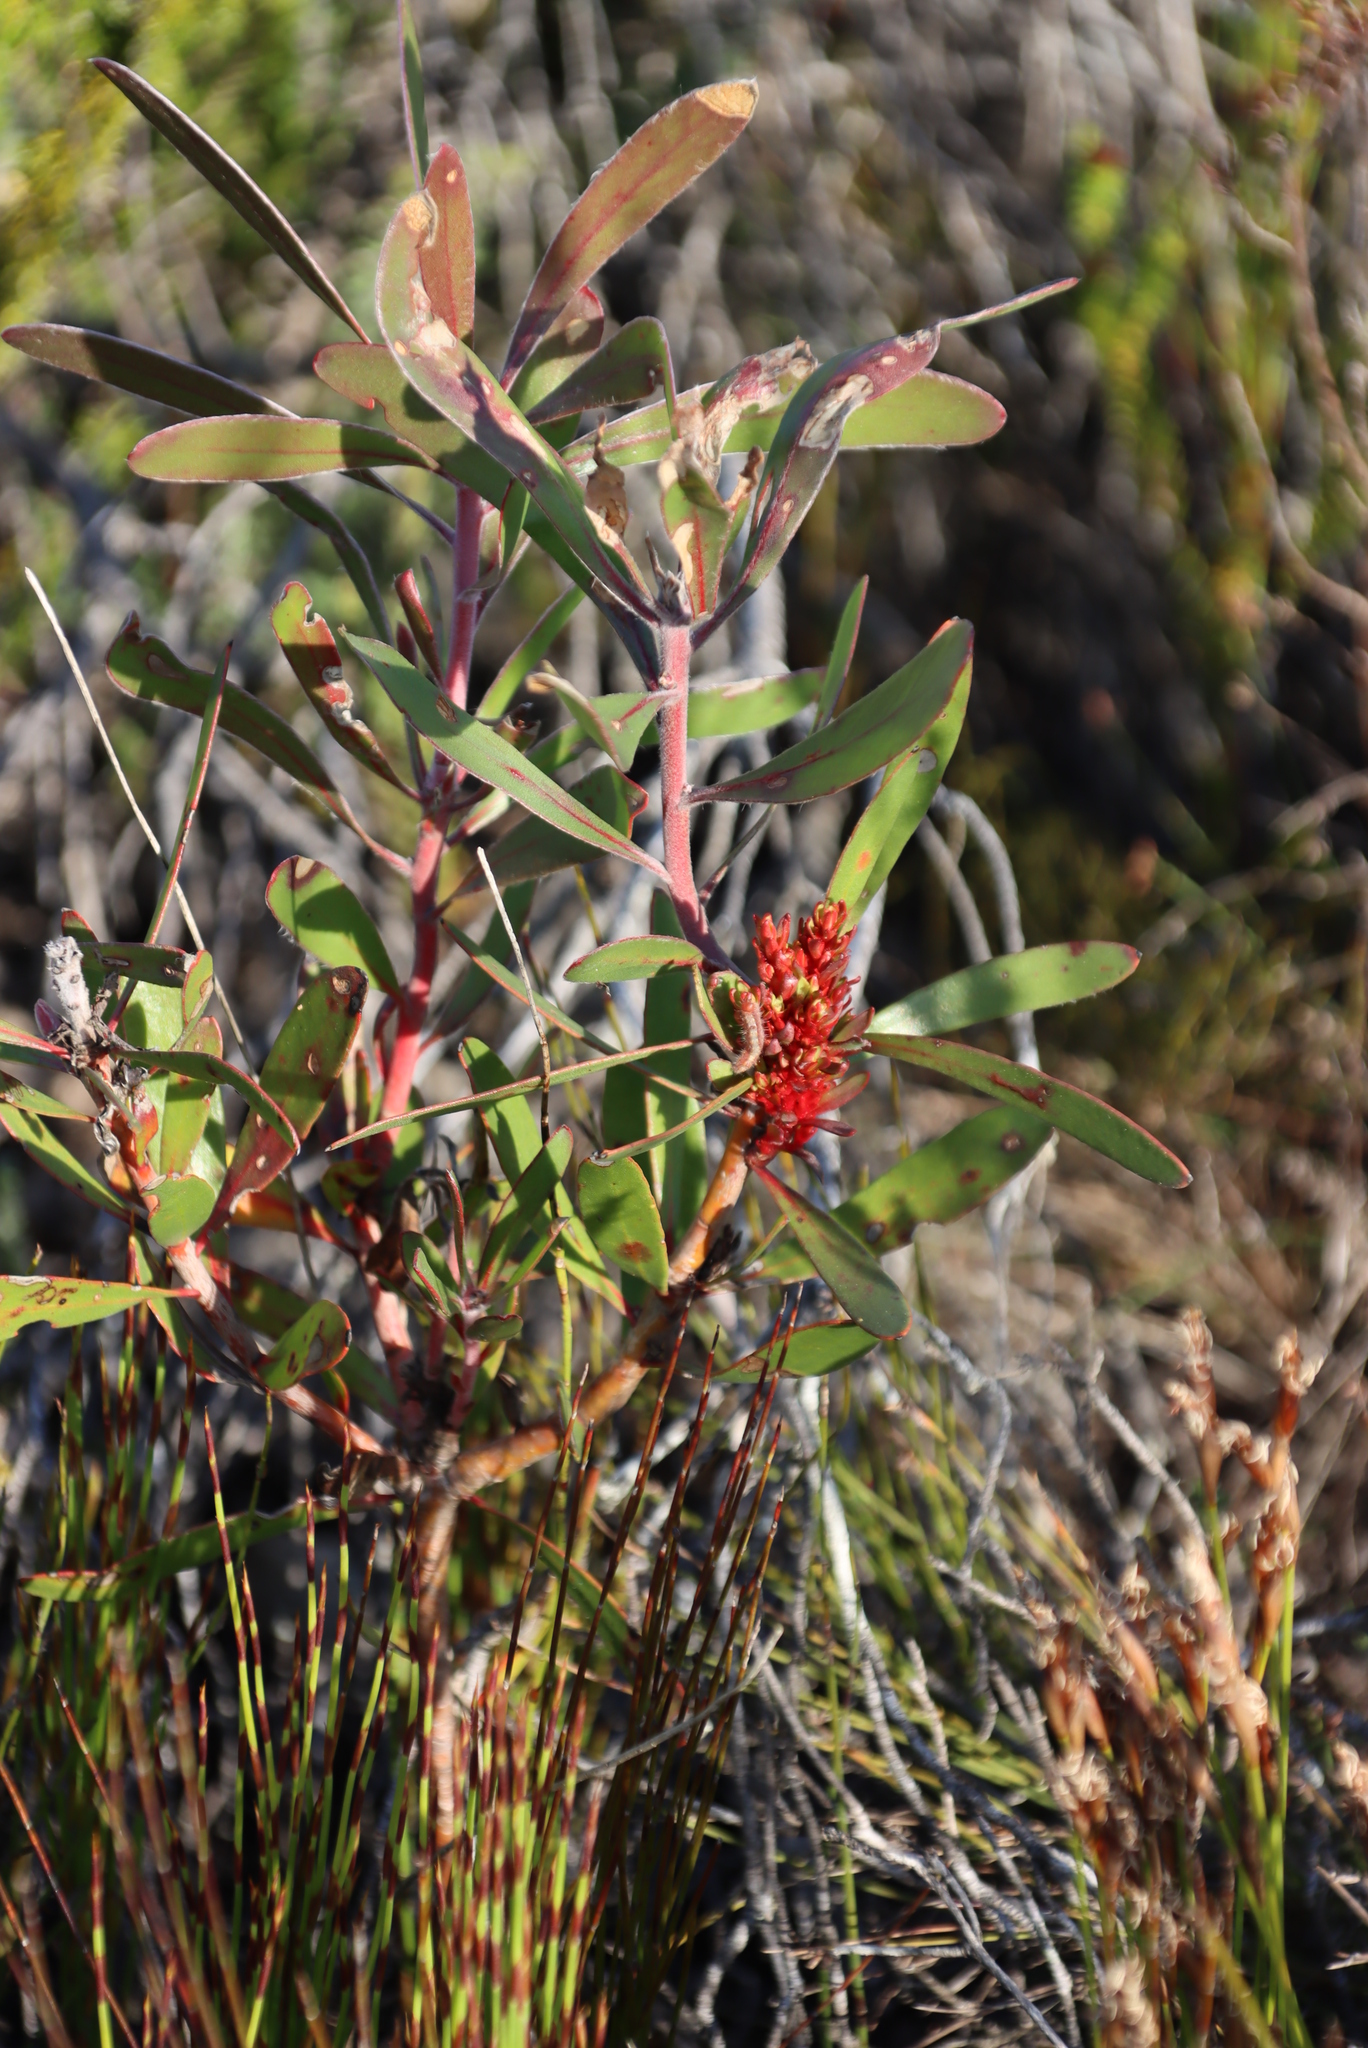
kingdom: Bacteria
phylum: Firmicutes
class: Bacilli
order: Acholeplasmatales
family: Acholeplasmataceae
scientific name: Acholeplasmataceae
